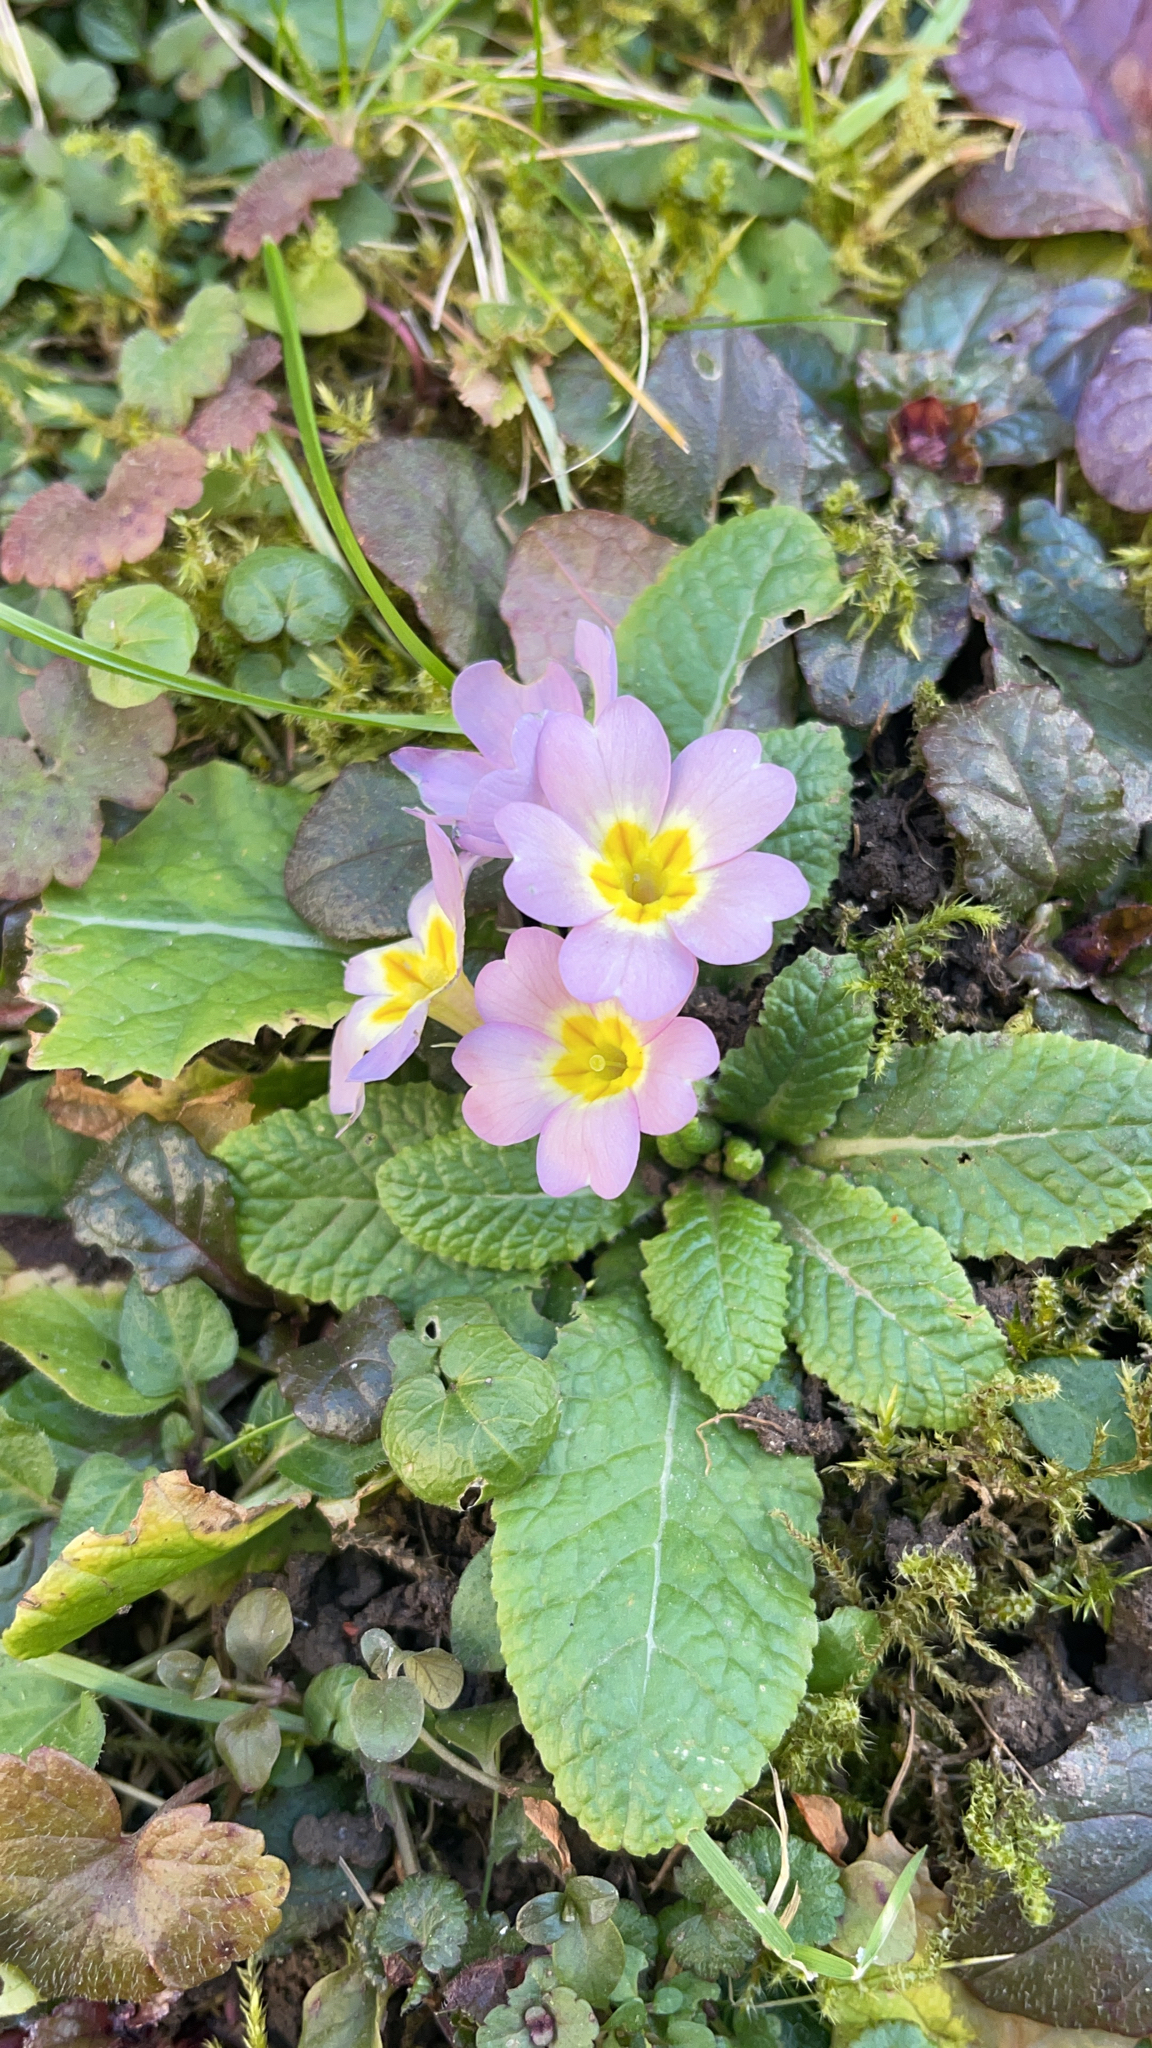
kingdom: Plantae
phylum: Tracheophyta
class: Magnoliopsida
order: Ericales
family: Primulaceae
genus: Primula
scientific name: Primula vulgaris
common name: Primrose
